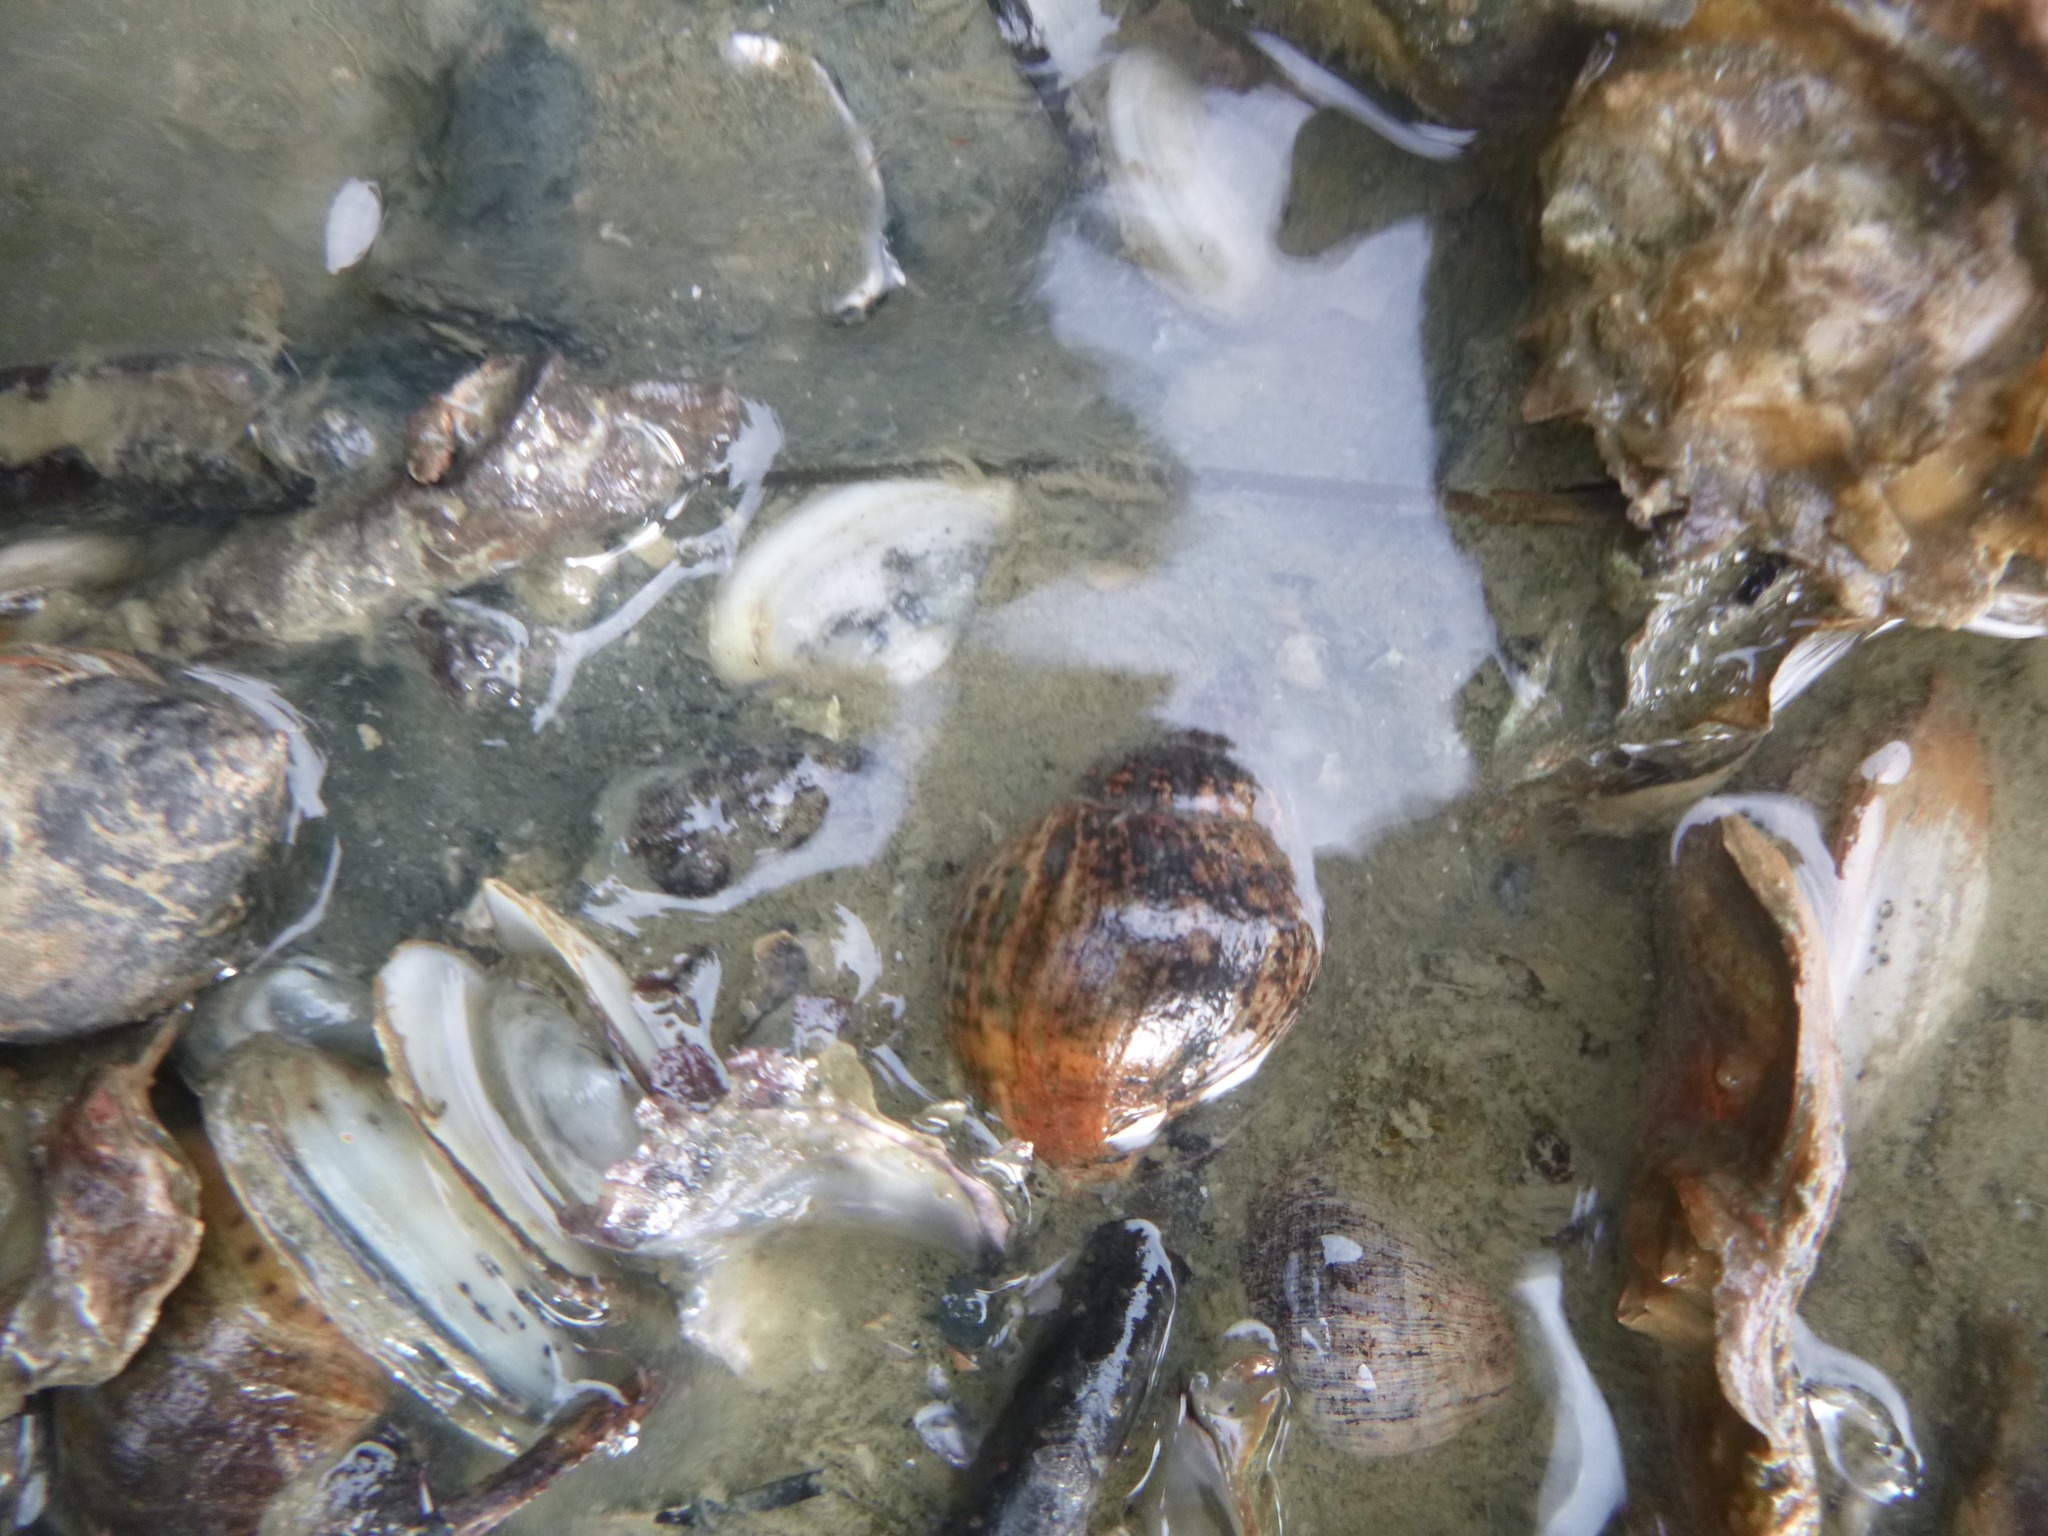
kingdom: Animalia
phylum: Mollusca
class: Gastropoda
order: Neogastropoda
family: Cominellidae
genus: Cominella
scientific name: Cominella adspersa
